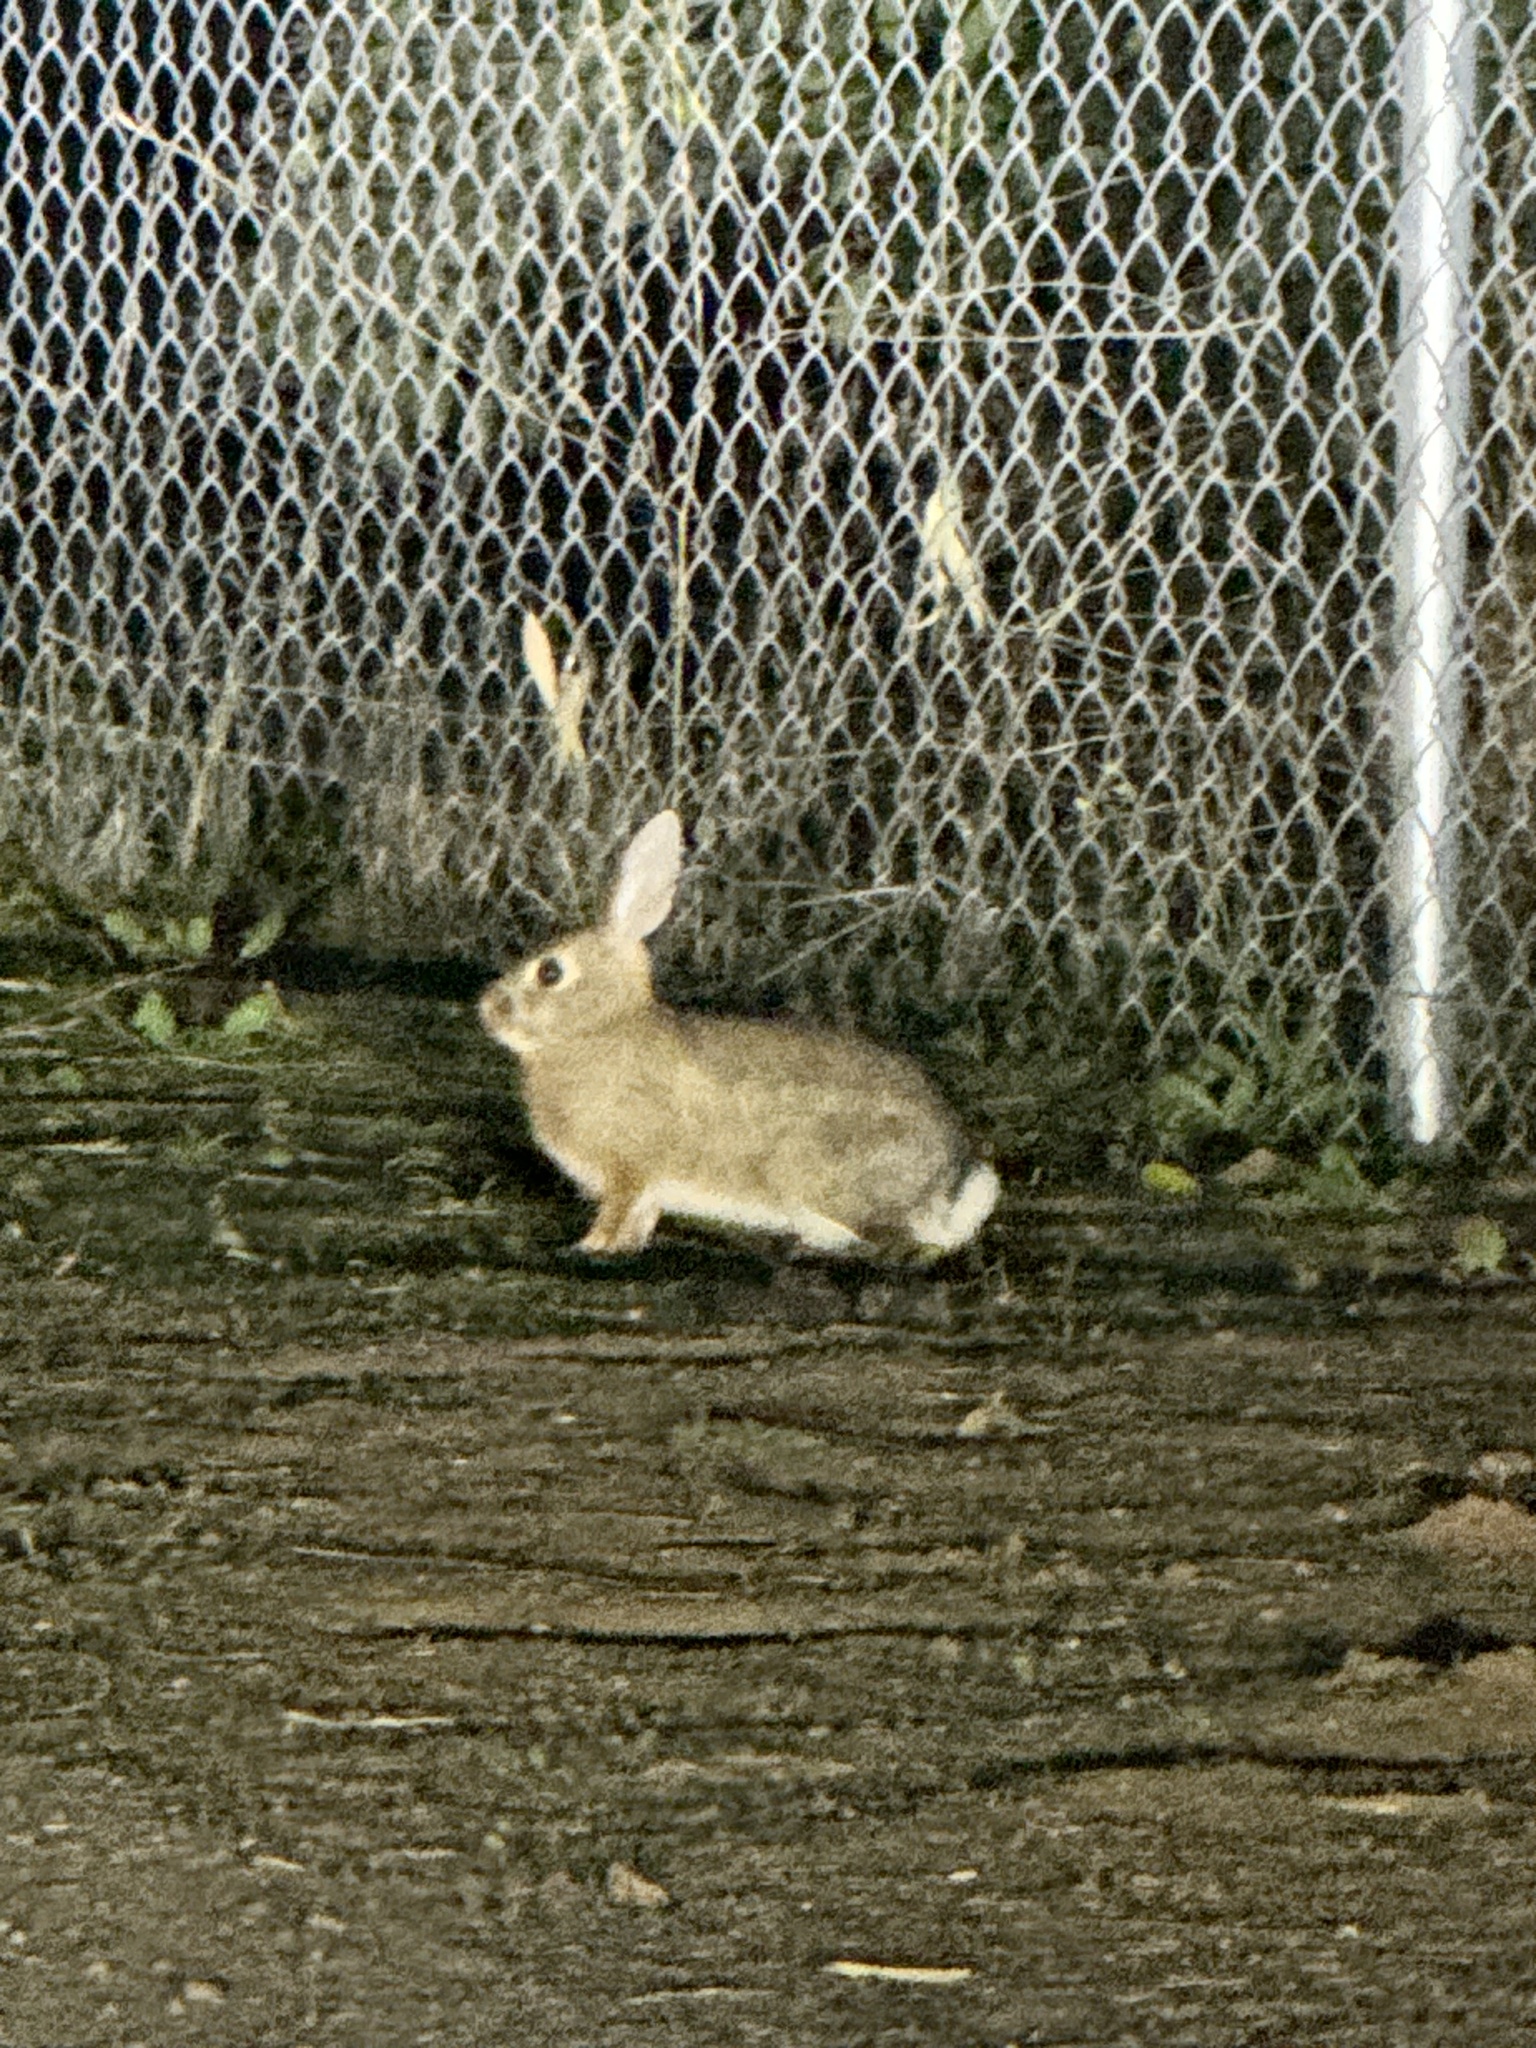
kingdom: Animalia
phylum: Chordata
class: Mammalia
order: Lagomorpha
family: Leporidae
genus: Sylvilagus
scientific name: Sylvilagus audubonii
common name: Desert cottontail
